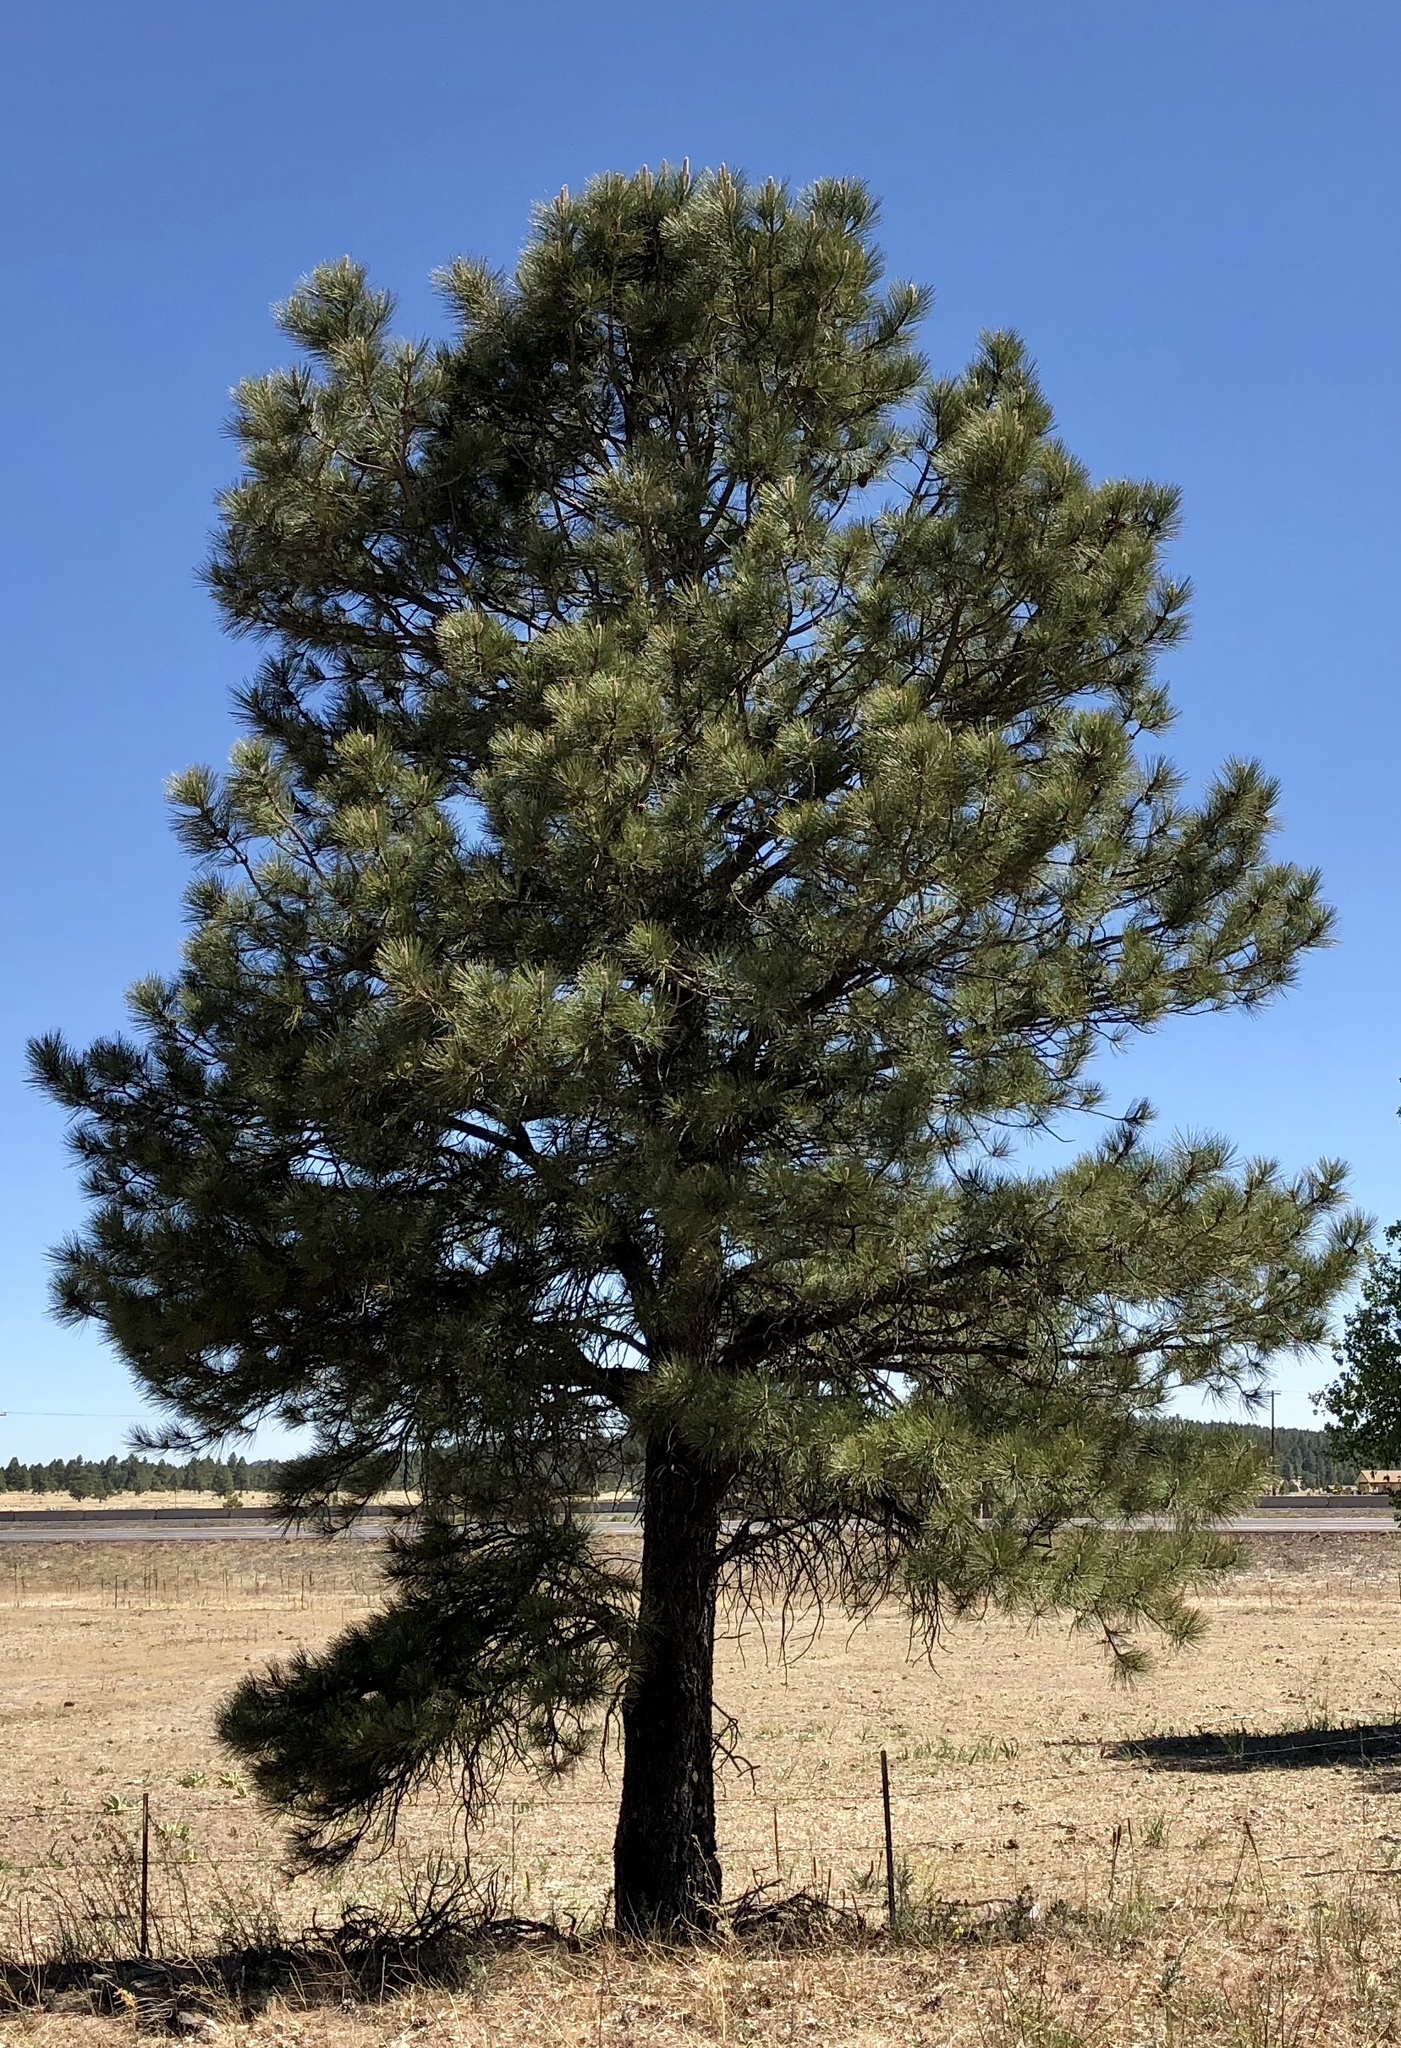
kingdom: Plantae
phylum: Tracheophyta
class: Pinopsida
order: Pinales
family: Pinaceae
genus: Pinus
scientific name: Pinus ponderosa
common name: Western yellow-pine
